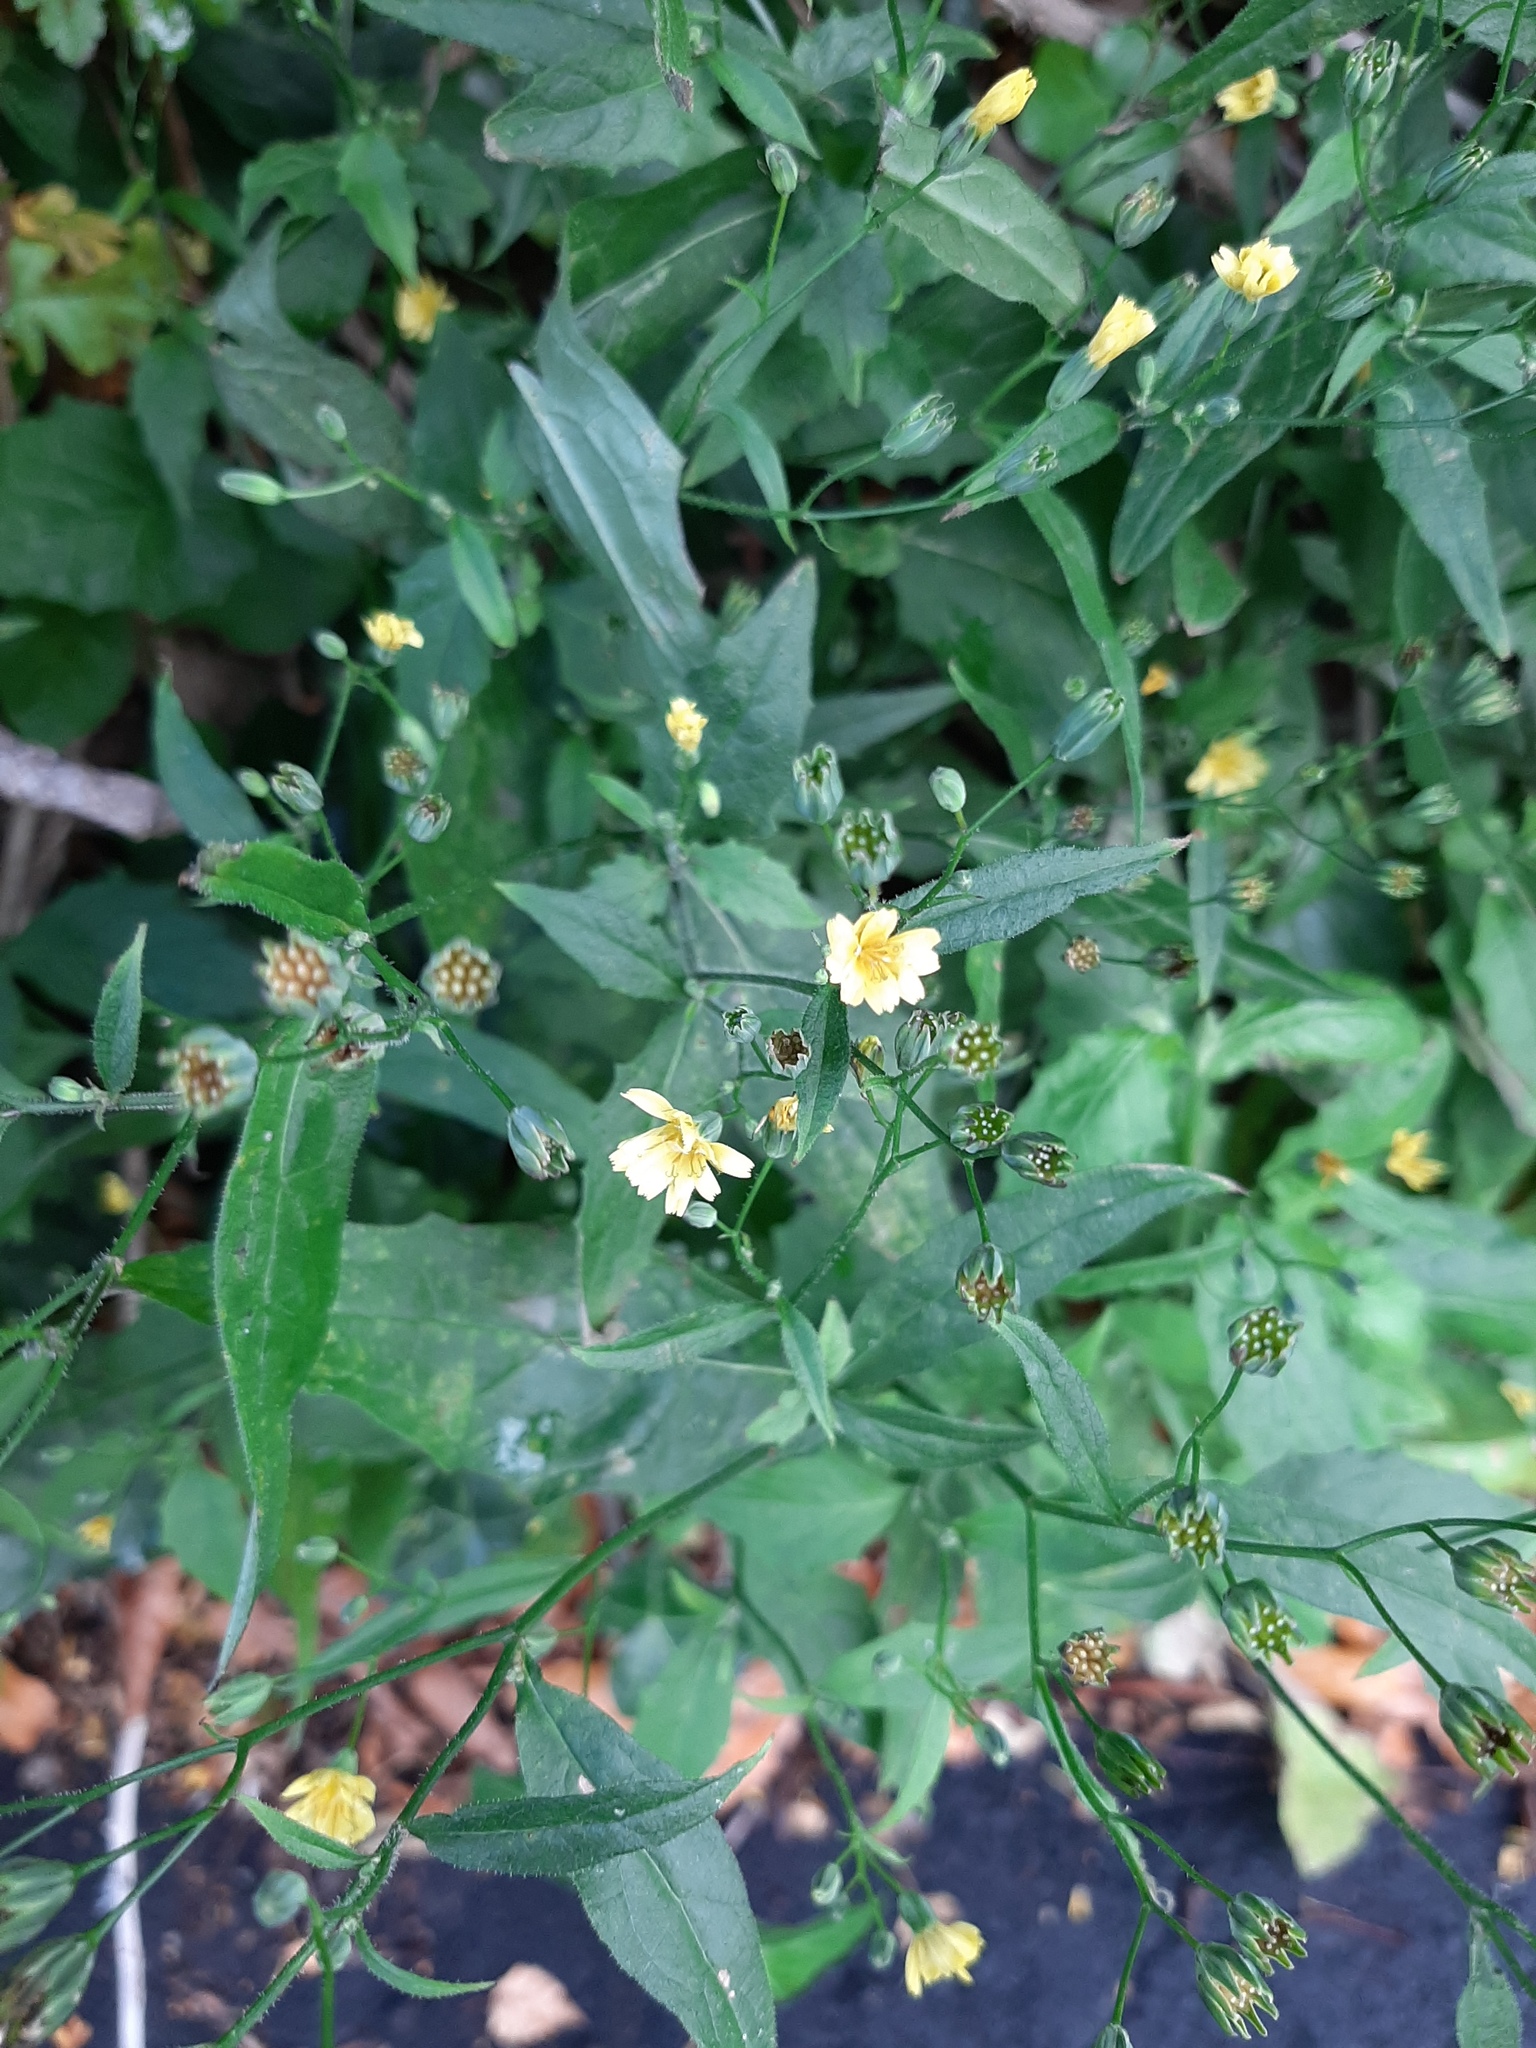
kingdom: Plantae
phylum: Tracheophyta
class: Magnoliopsida
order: Asterales
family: Asteraceae
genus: Lapsana
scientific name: Lapsana communis
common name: Nipplewort
